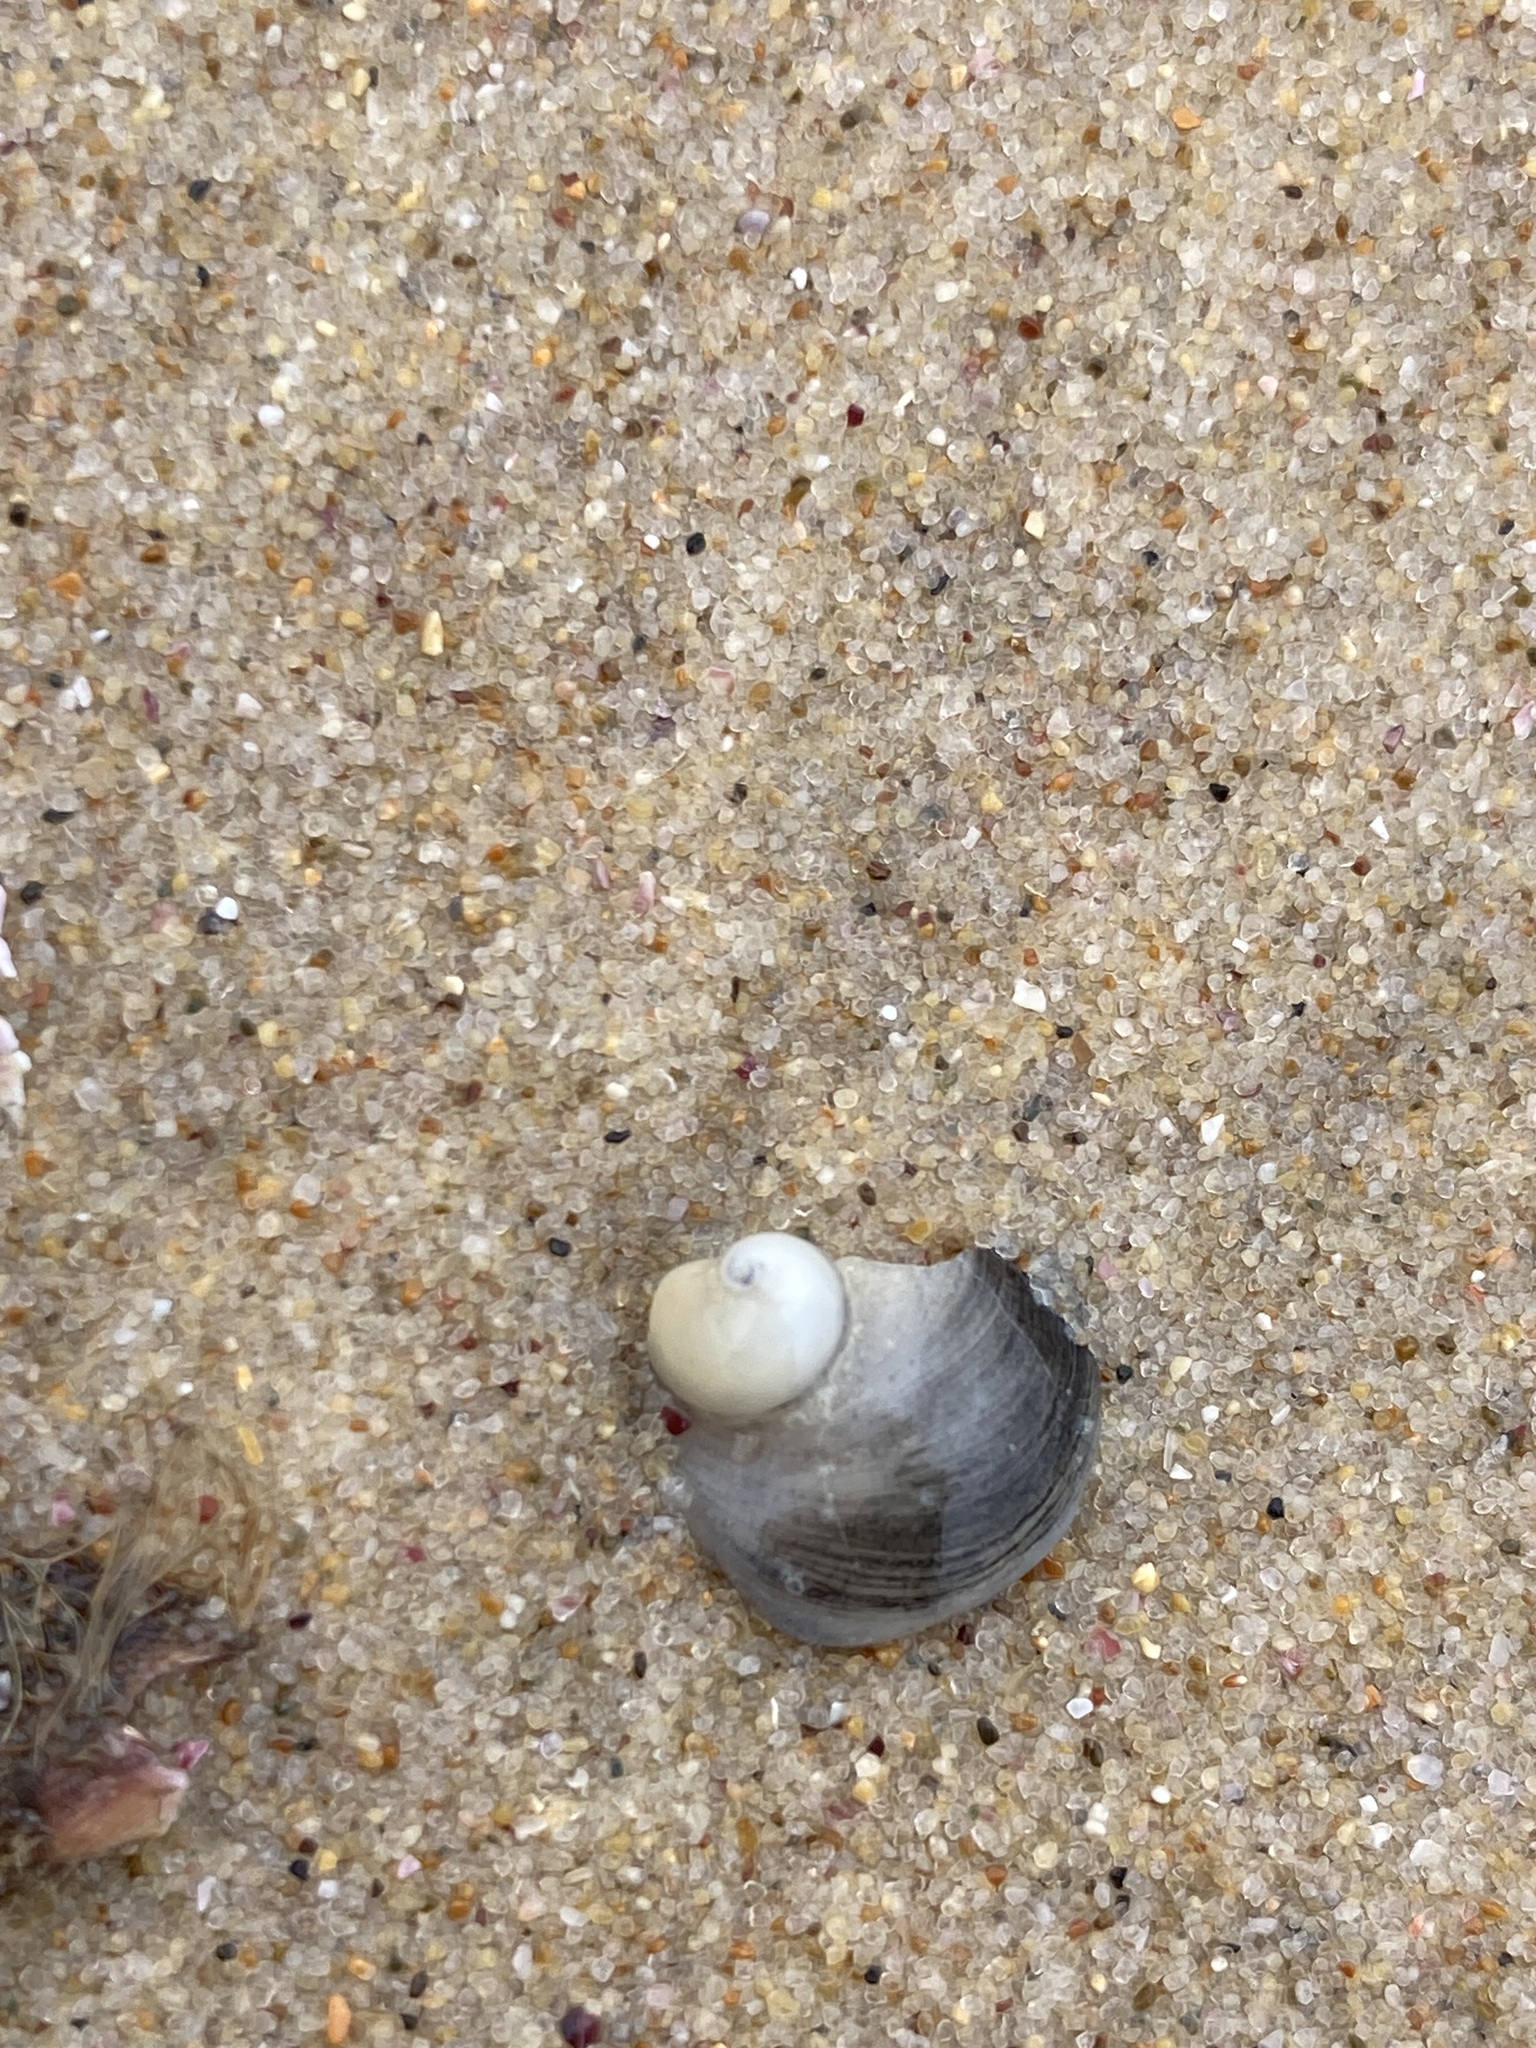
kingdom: Animalia
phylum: Mollusca
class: Gastropoda
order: Littorinimorpha
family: Calyptraeidae
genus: Sigapatella
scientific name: Sigapatella calyptraeformis
